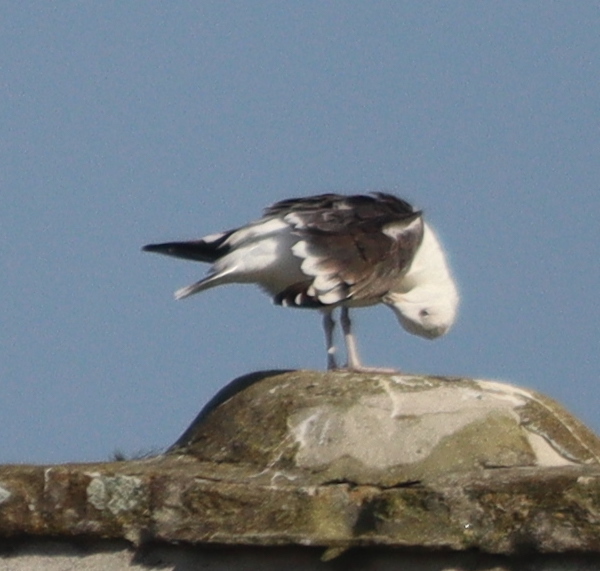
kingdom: Animalia
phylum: Chordata
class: Aves
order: Charadriiformes
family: Laridae
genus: Larus
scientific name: Larus marinus
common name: Great black-backed gull
